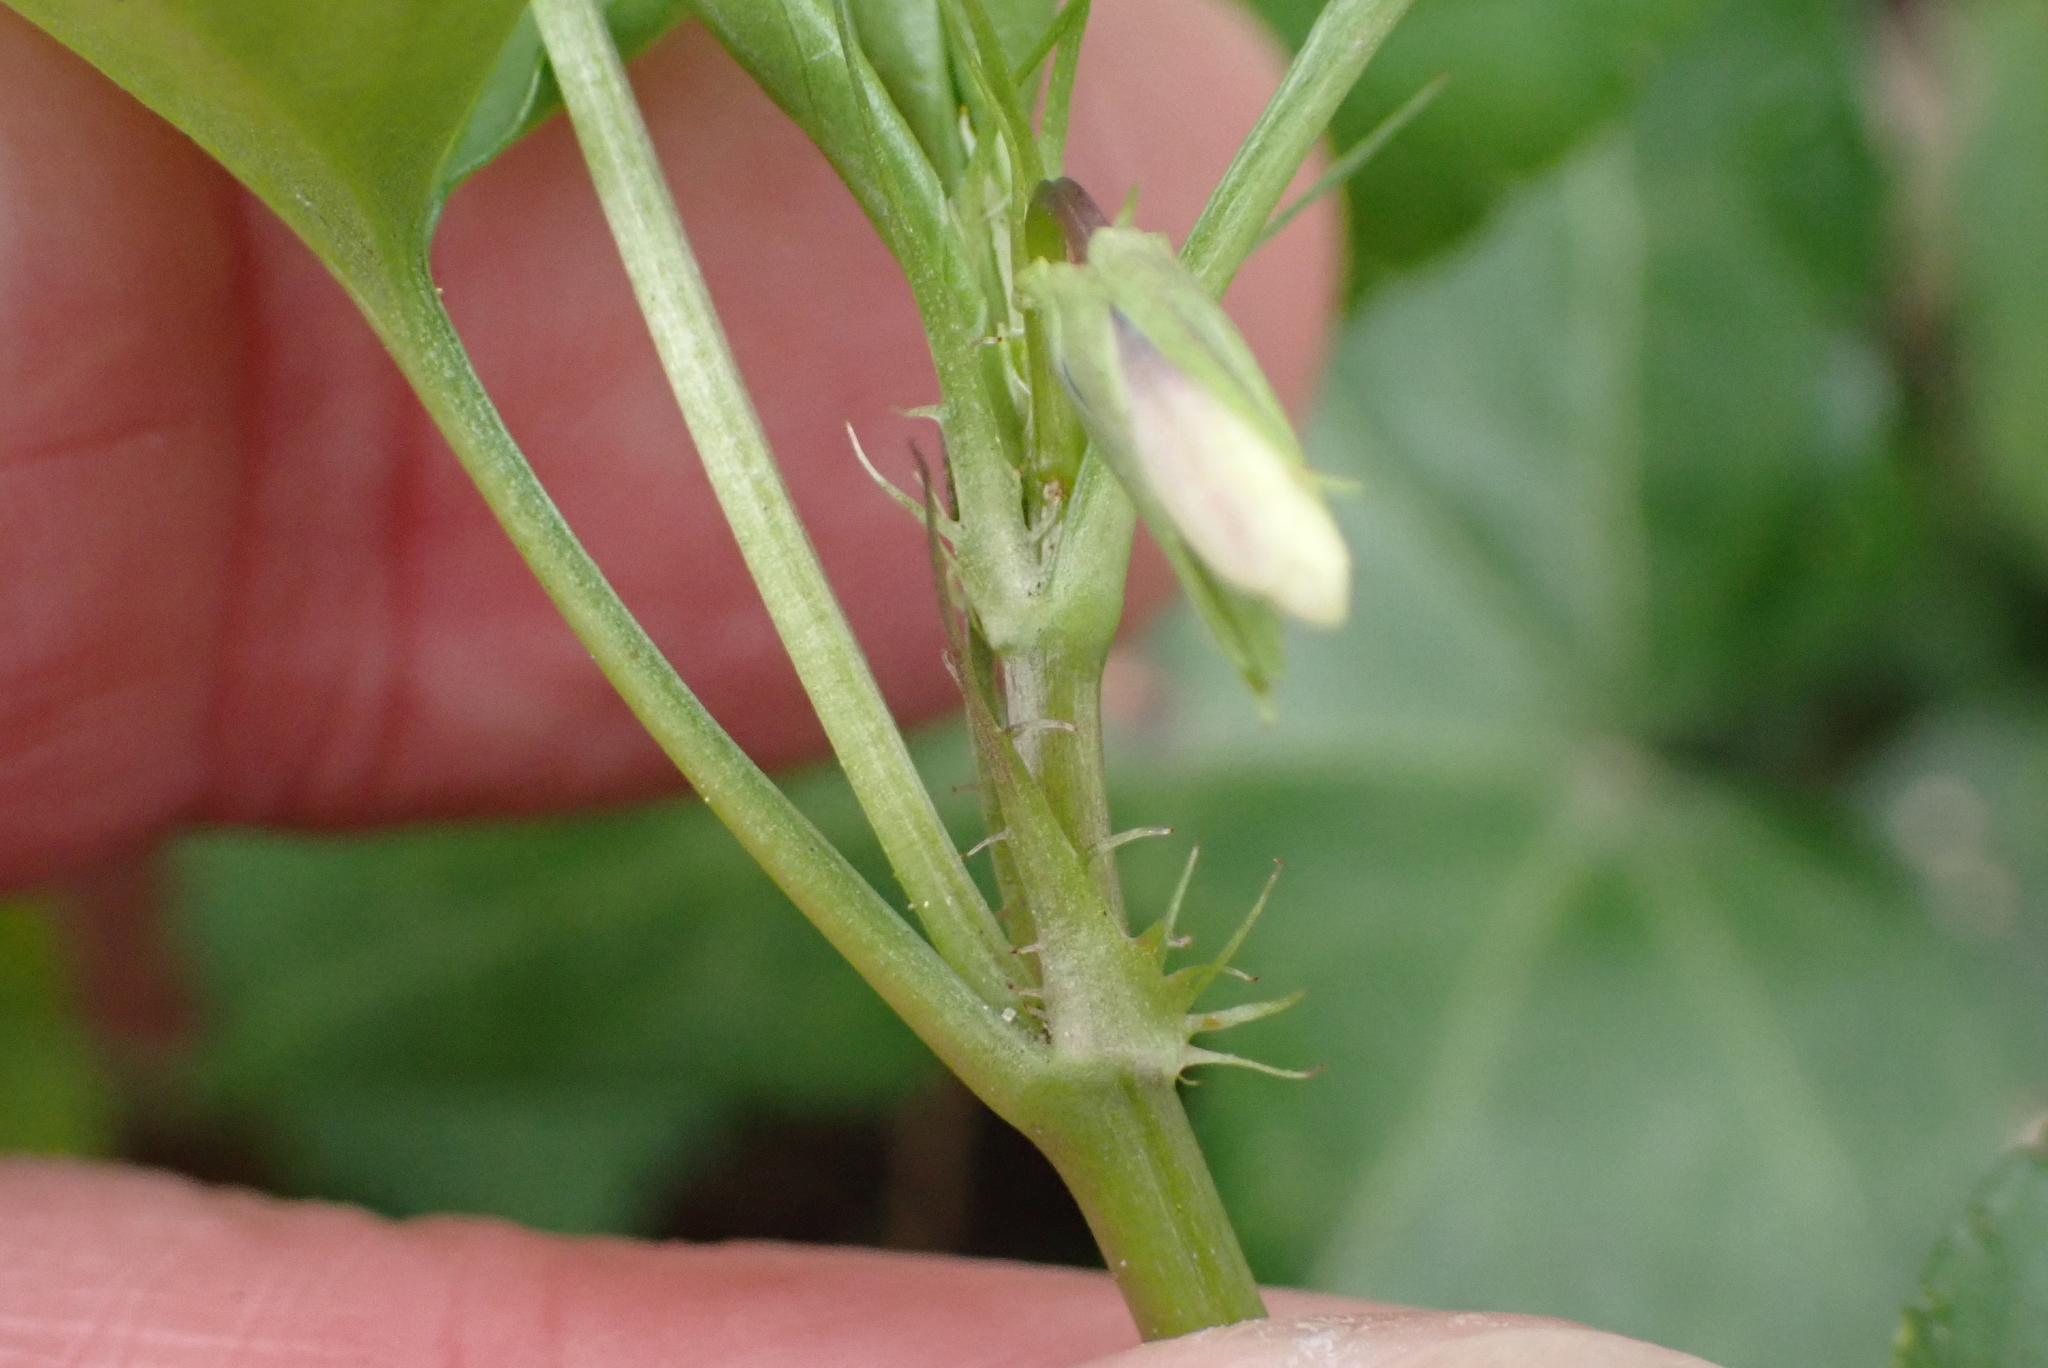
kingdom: Plantae
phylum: Tracheophyta
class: Magnoliopsida
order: Malpighiales
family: Violaceae
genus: Viola
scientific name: Viola reichenbachiana
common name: Early dog-violet
